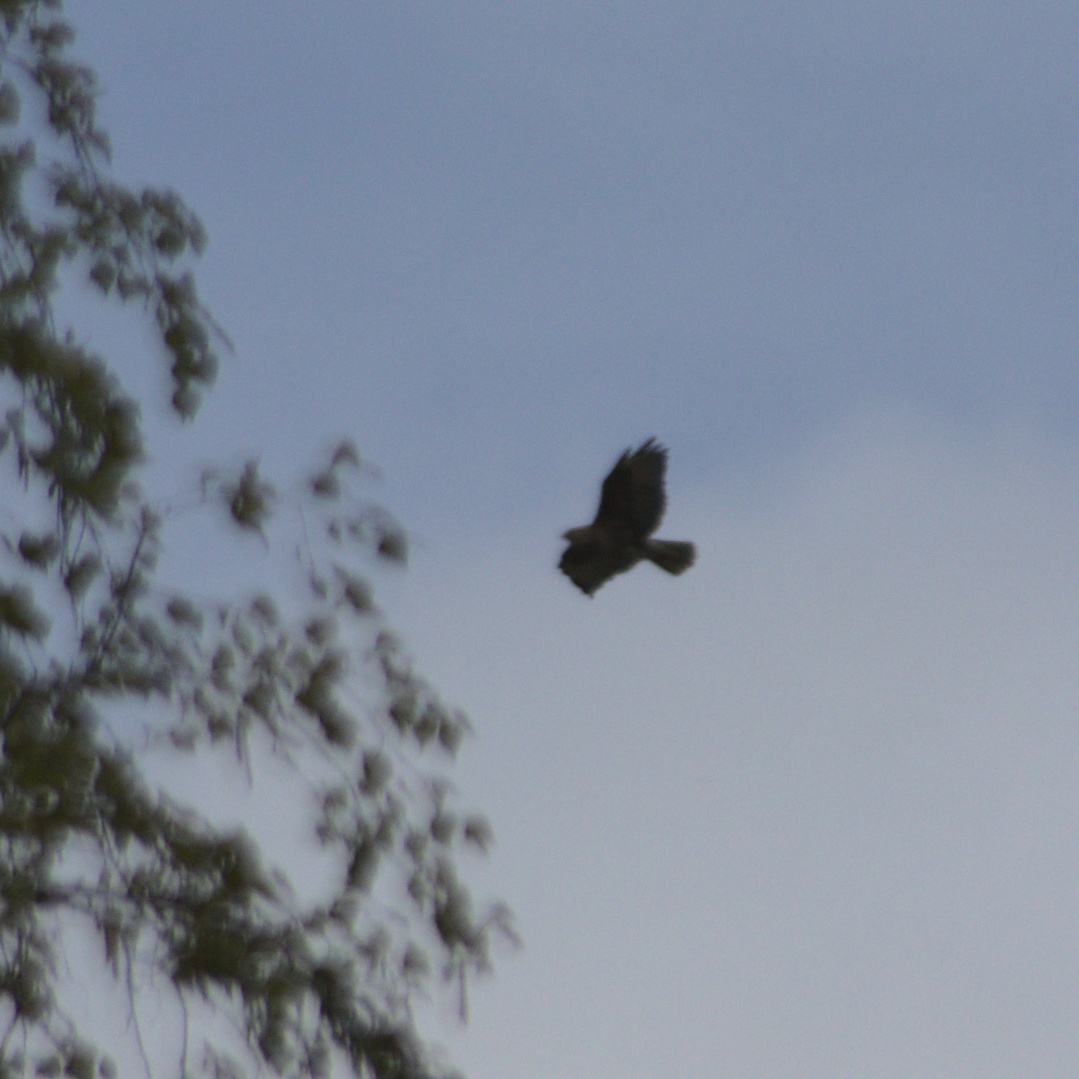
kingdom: Animalia
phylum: Chordata
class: Aves
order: Accipitriformes
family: Accipitridae
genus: Buteo
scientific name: Buteo buteo
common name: Common buzzard
